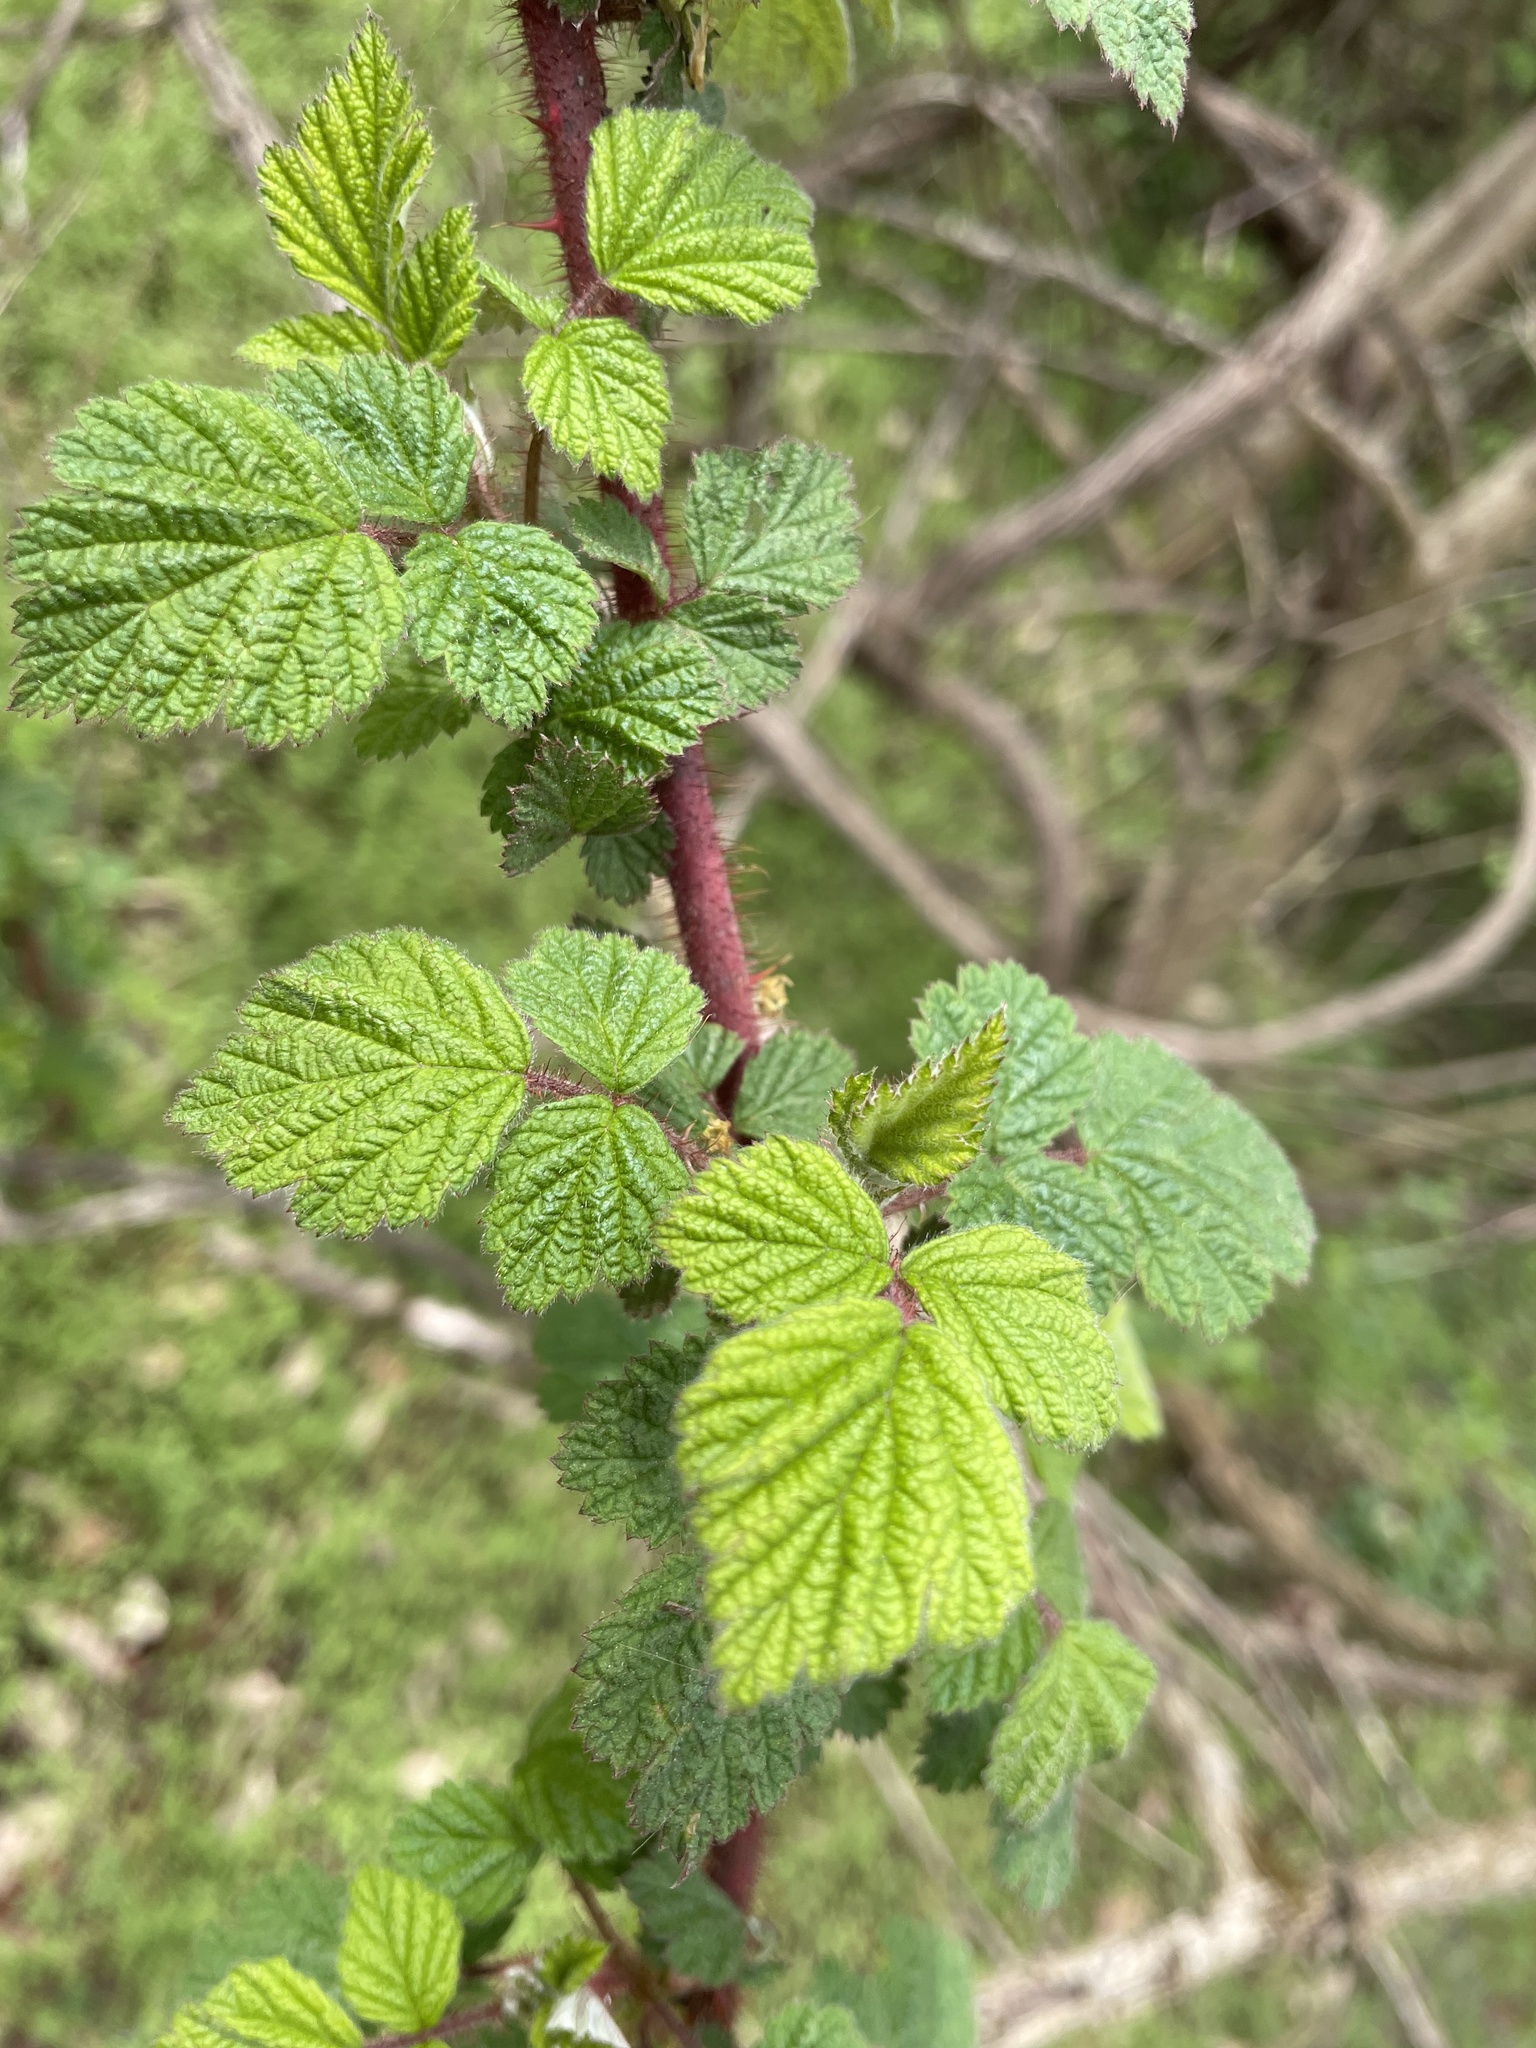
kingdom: Plantae
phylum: Tracheophyta
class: Magnoliopsida
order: Rosales
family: Rosaceae
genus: Rubus
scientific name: Rubus phoenicolasius
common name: Japanese wineberry
